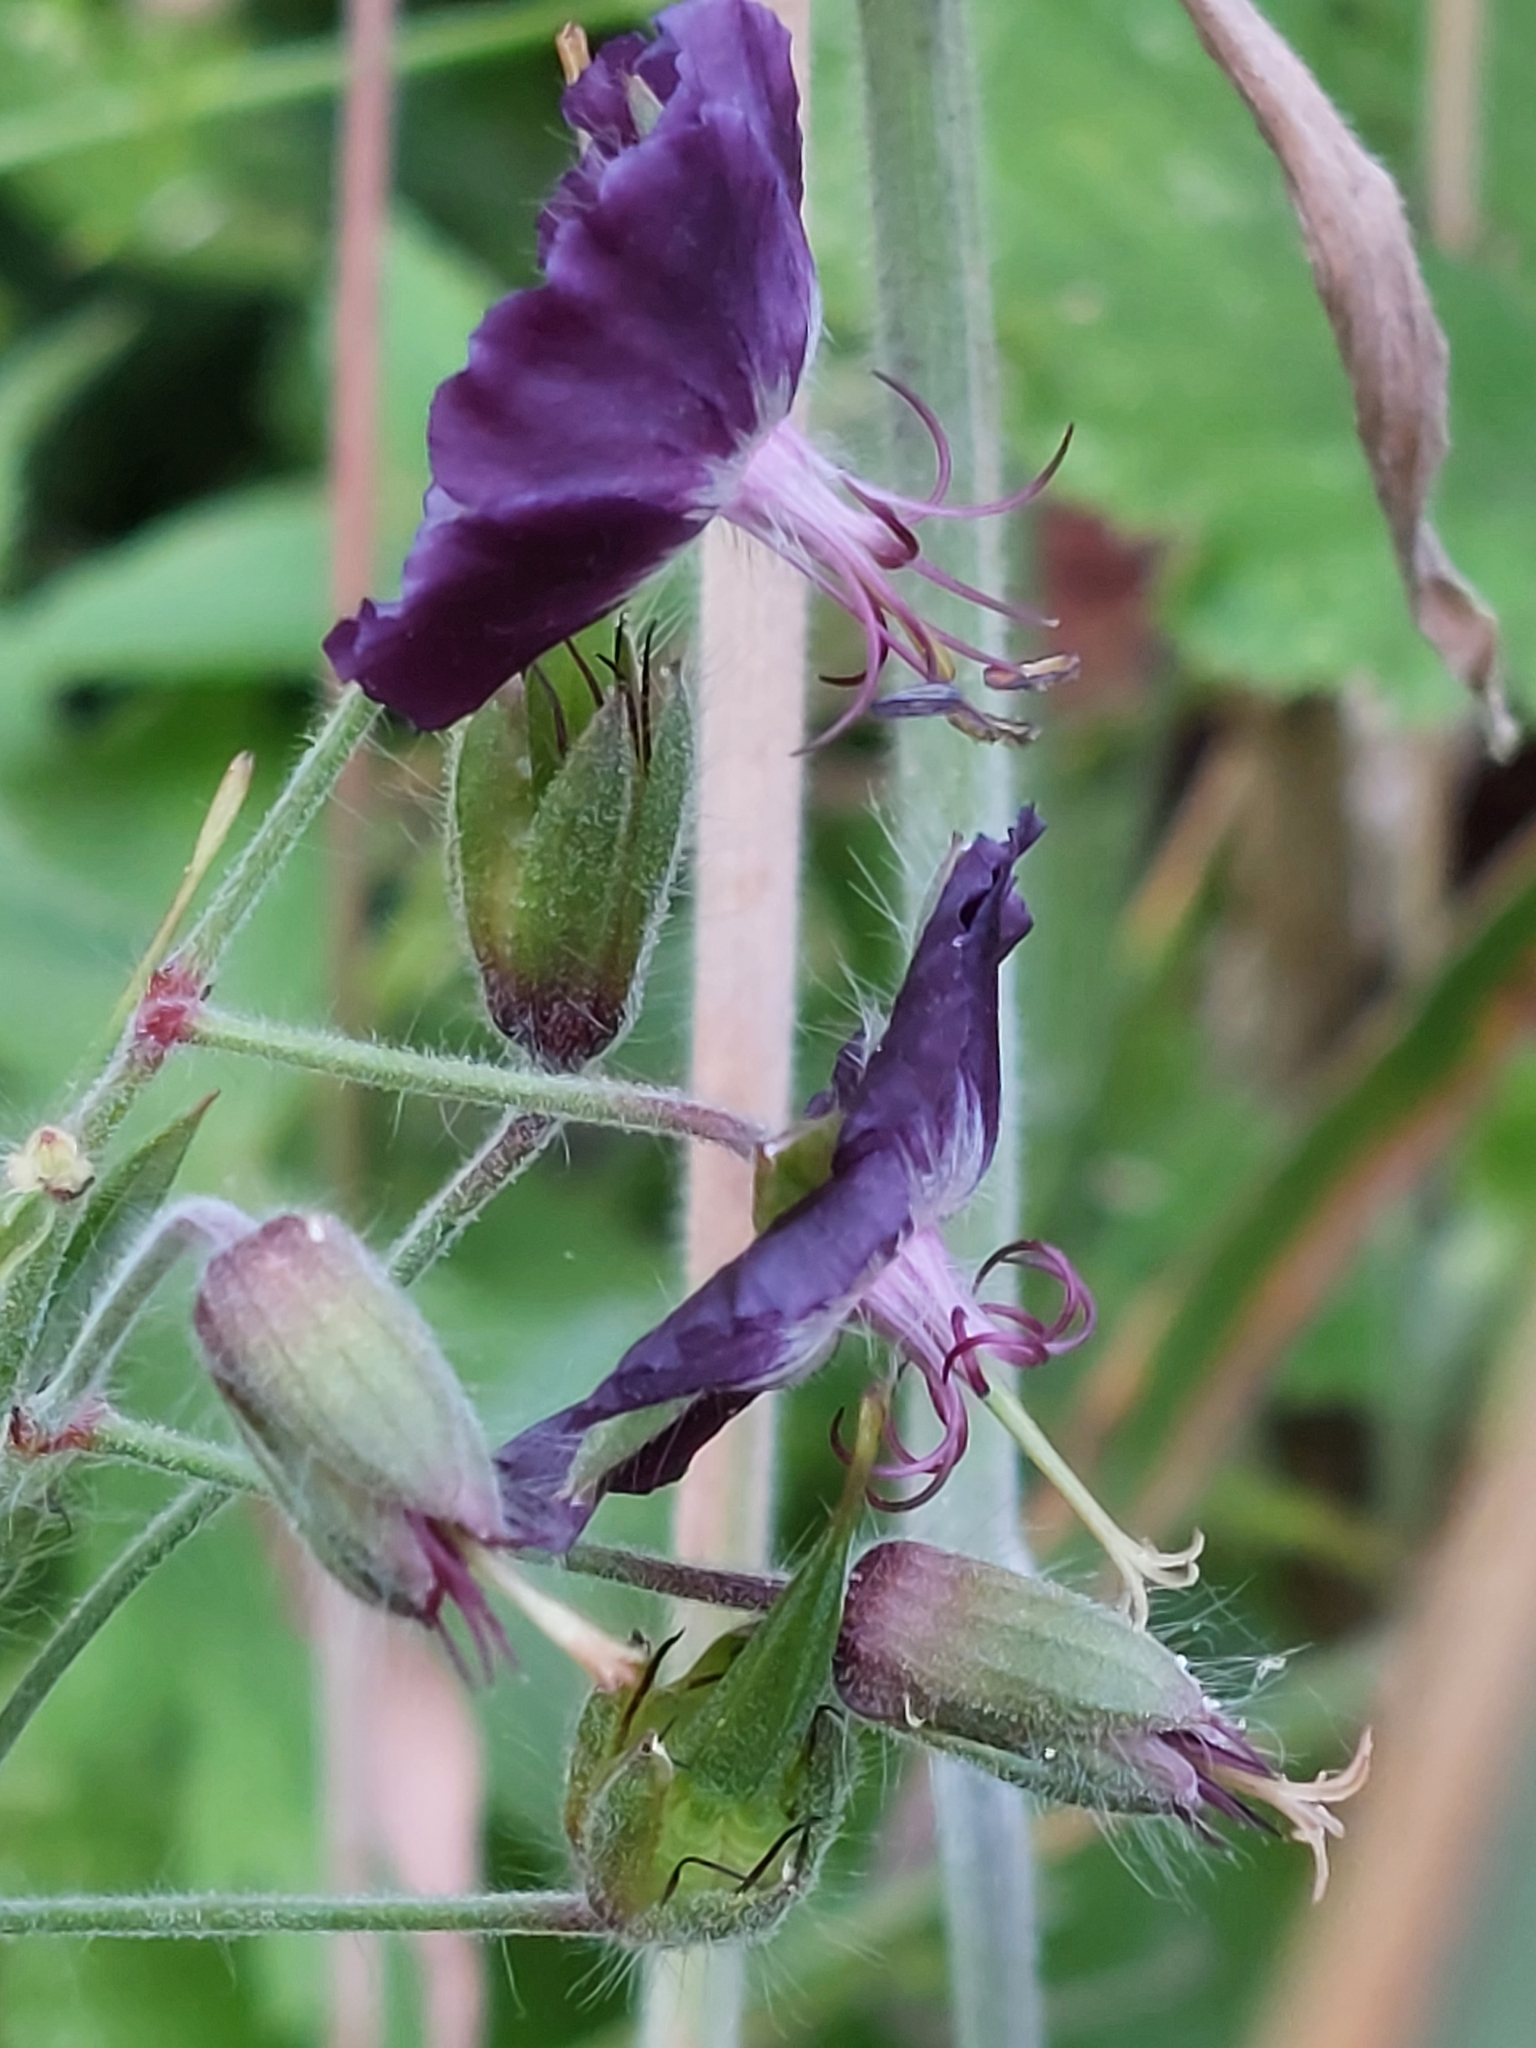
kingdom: Plantae
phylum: Tracheophyta
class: Magnoliopsida
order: Geraniales
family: Geraniaceae
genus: Geranium
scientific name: Geranium phaeum
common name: Dusky crane's-bill
